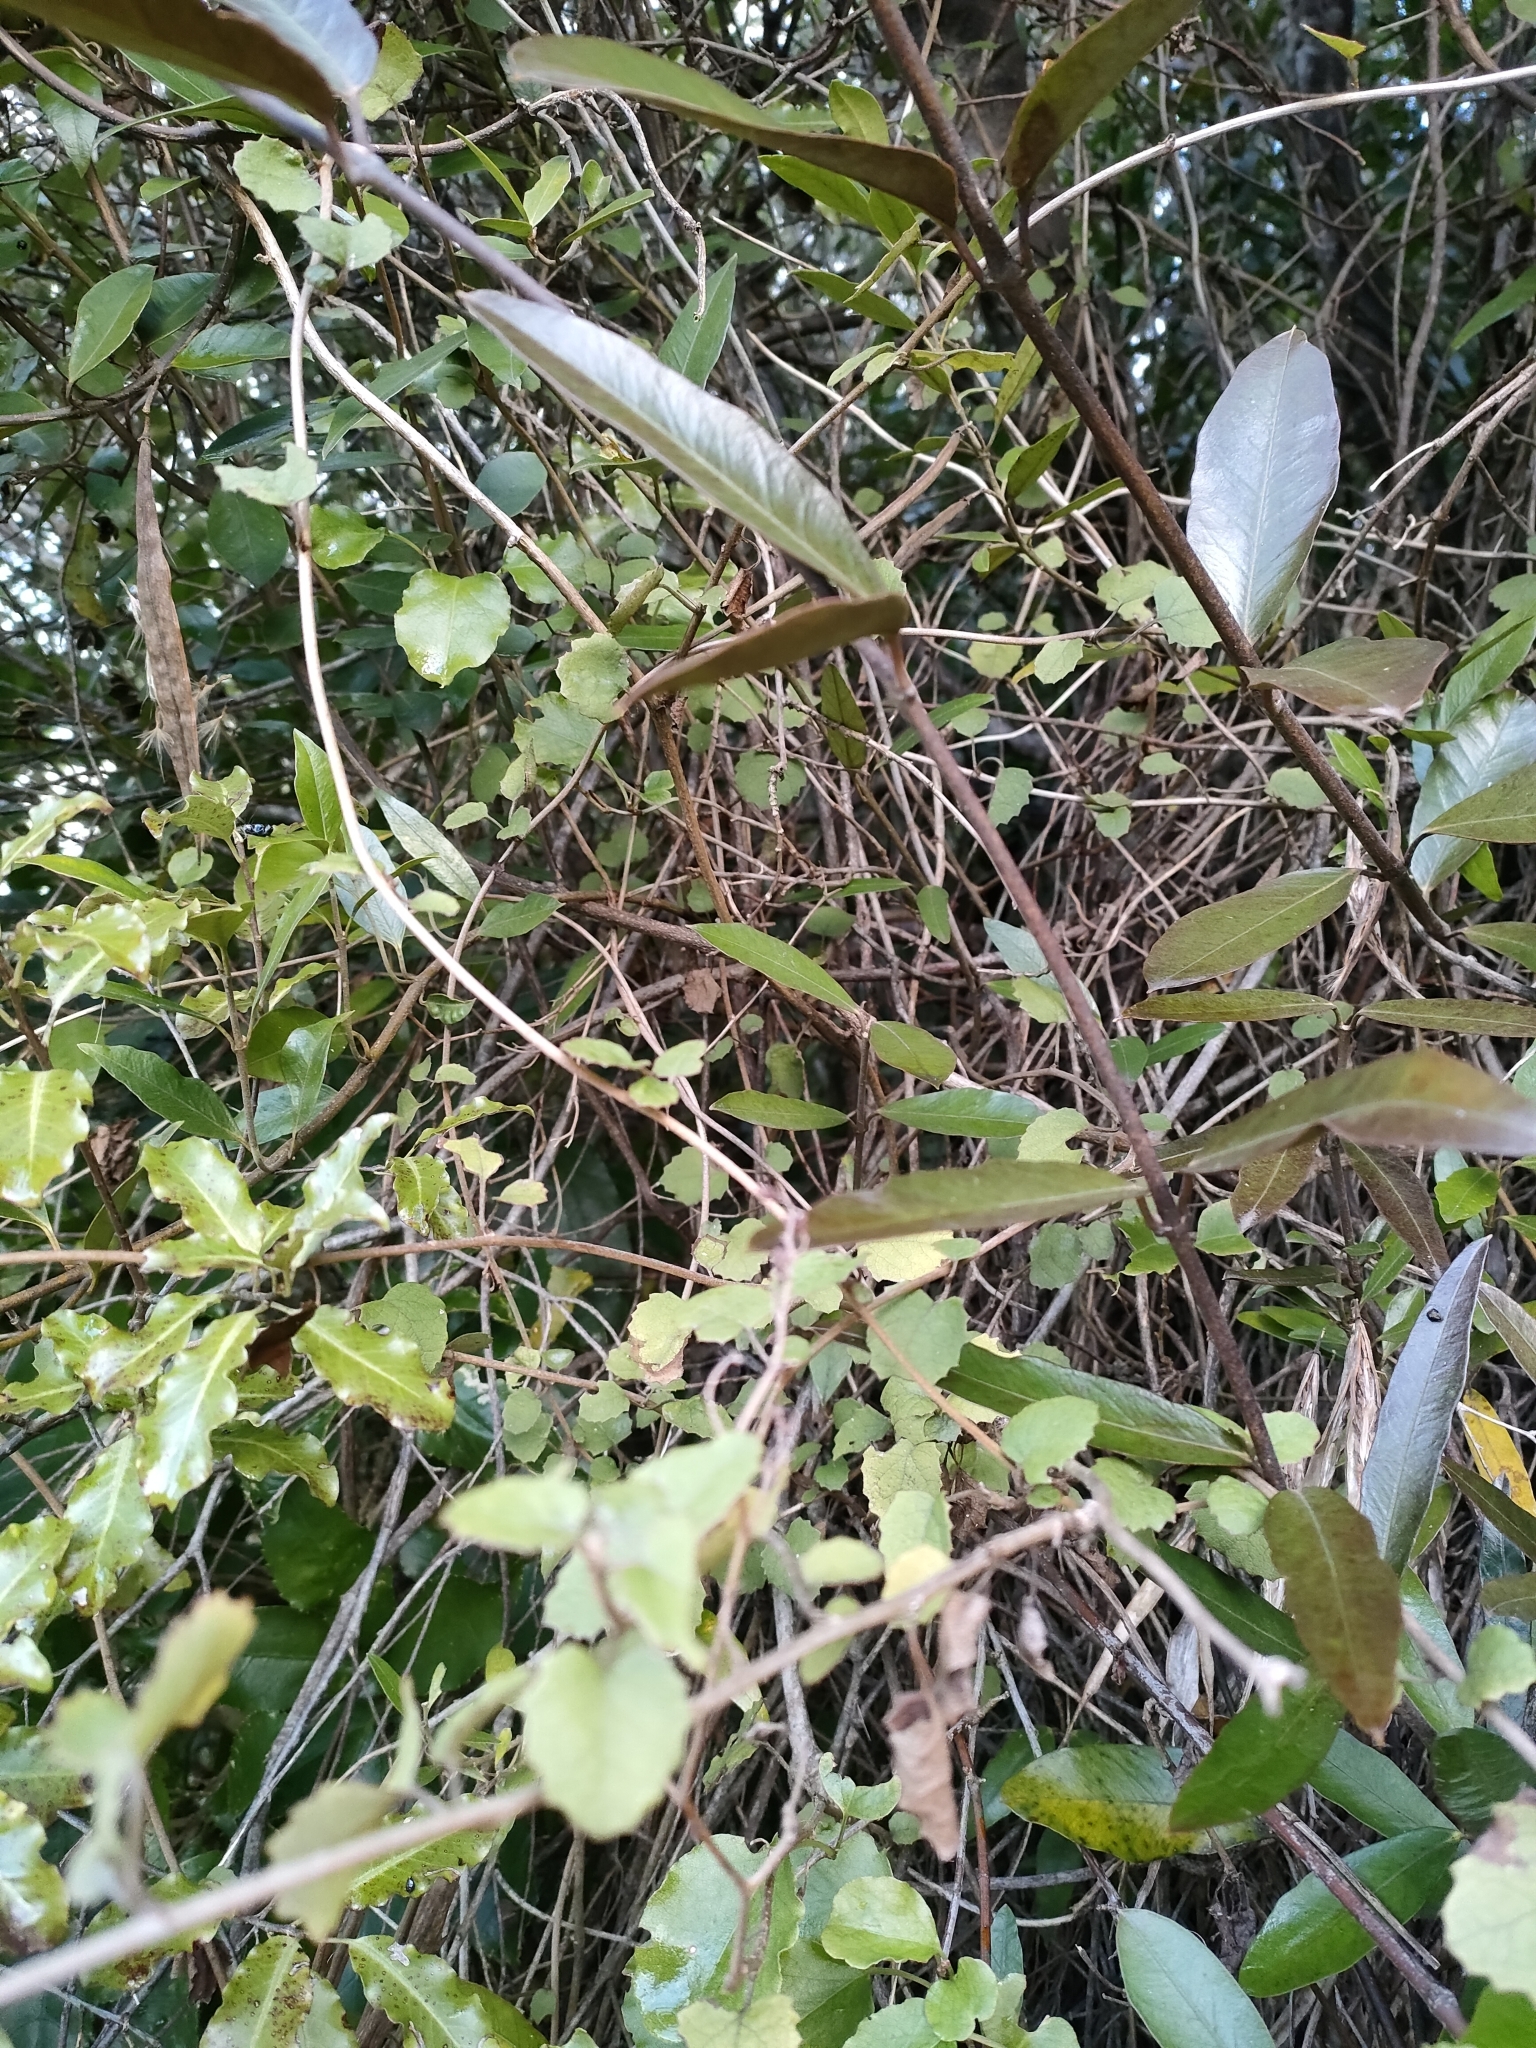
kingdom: Plantae
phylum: Tracheophyta
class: Magnoliopsida
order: Asterales
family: Asteraceae
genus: Brachyglottis
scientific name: Brachyglottis sciadophila
